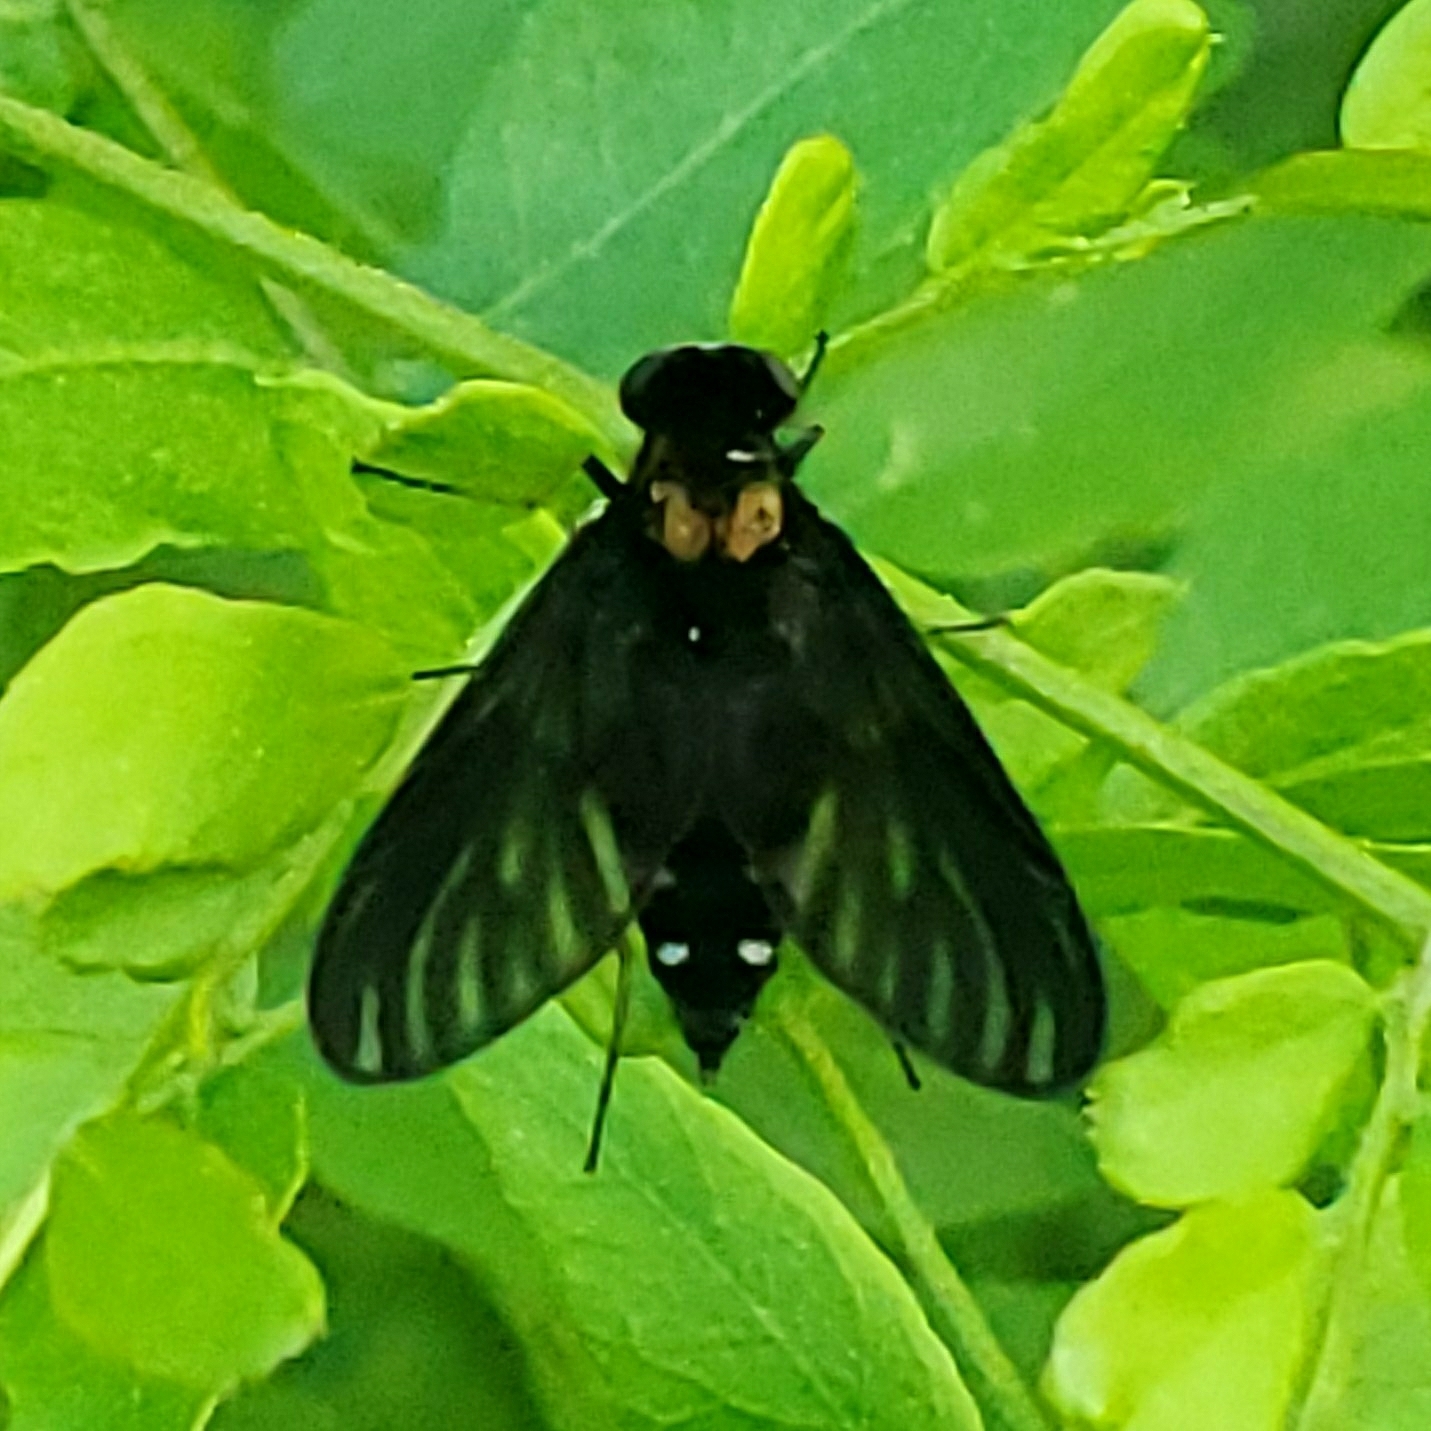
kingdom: Animalia
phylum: Arthropoda
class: Insecta
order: Diptera
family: Rhagionidae
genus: Chrysopilus
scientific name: Chrysopilus thoracicus
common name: Golden-backed snipe fly
